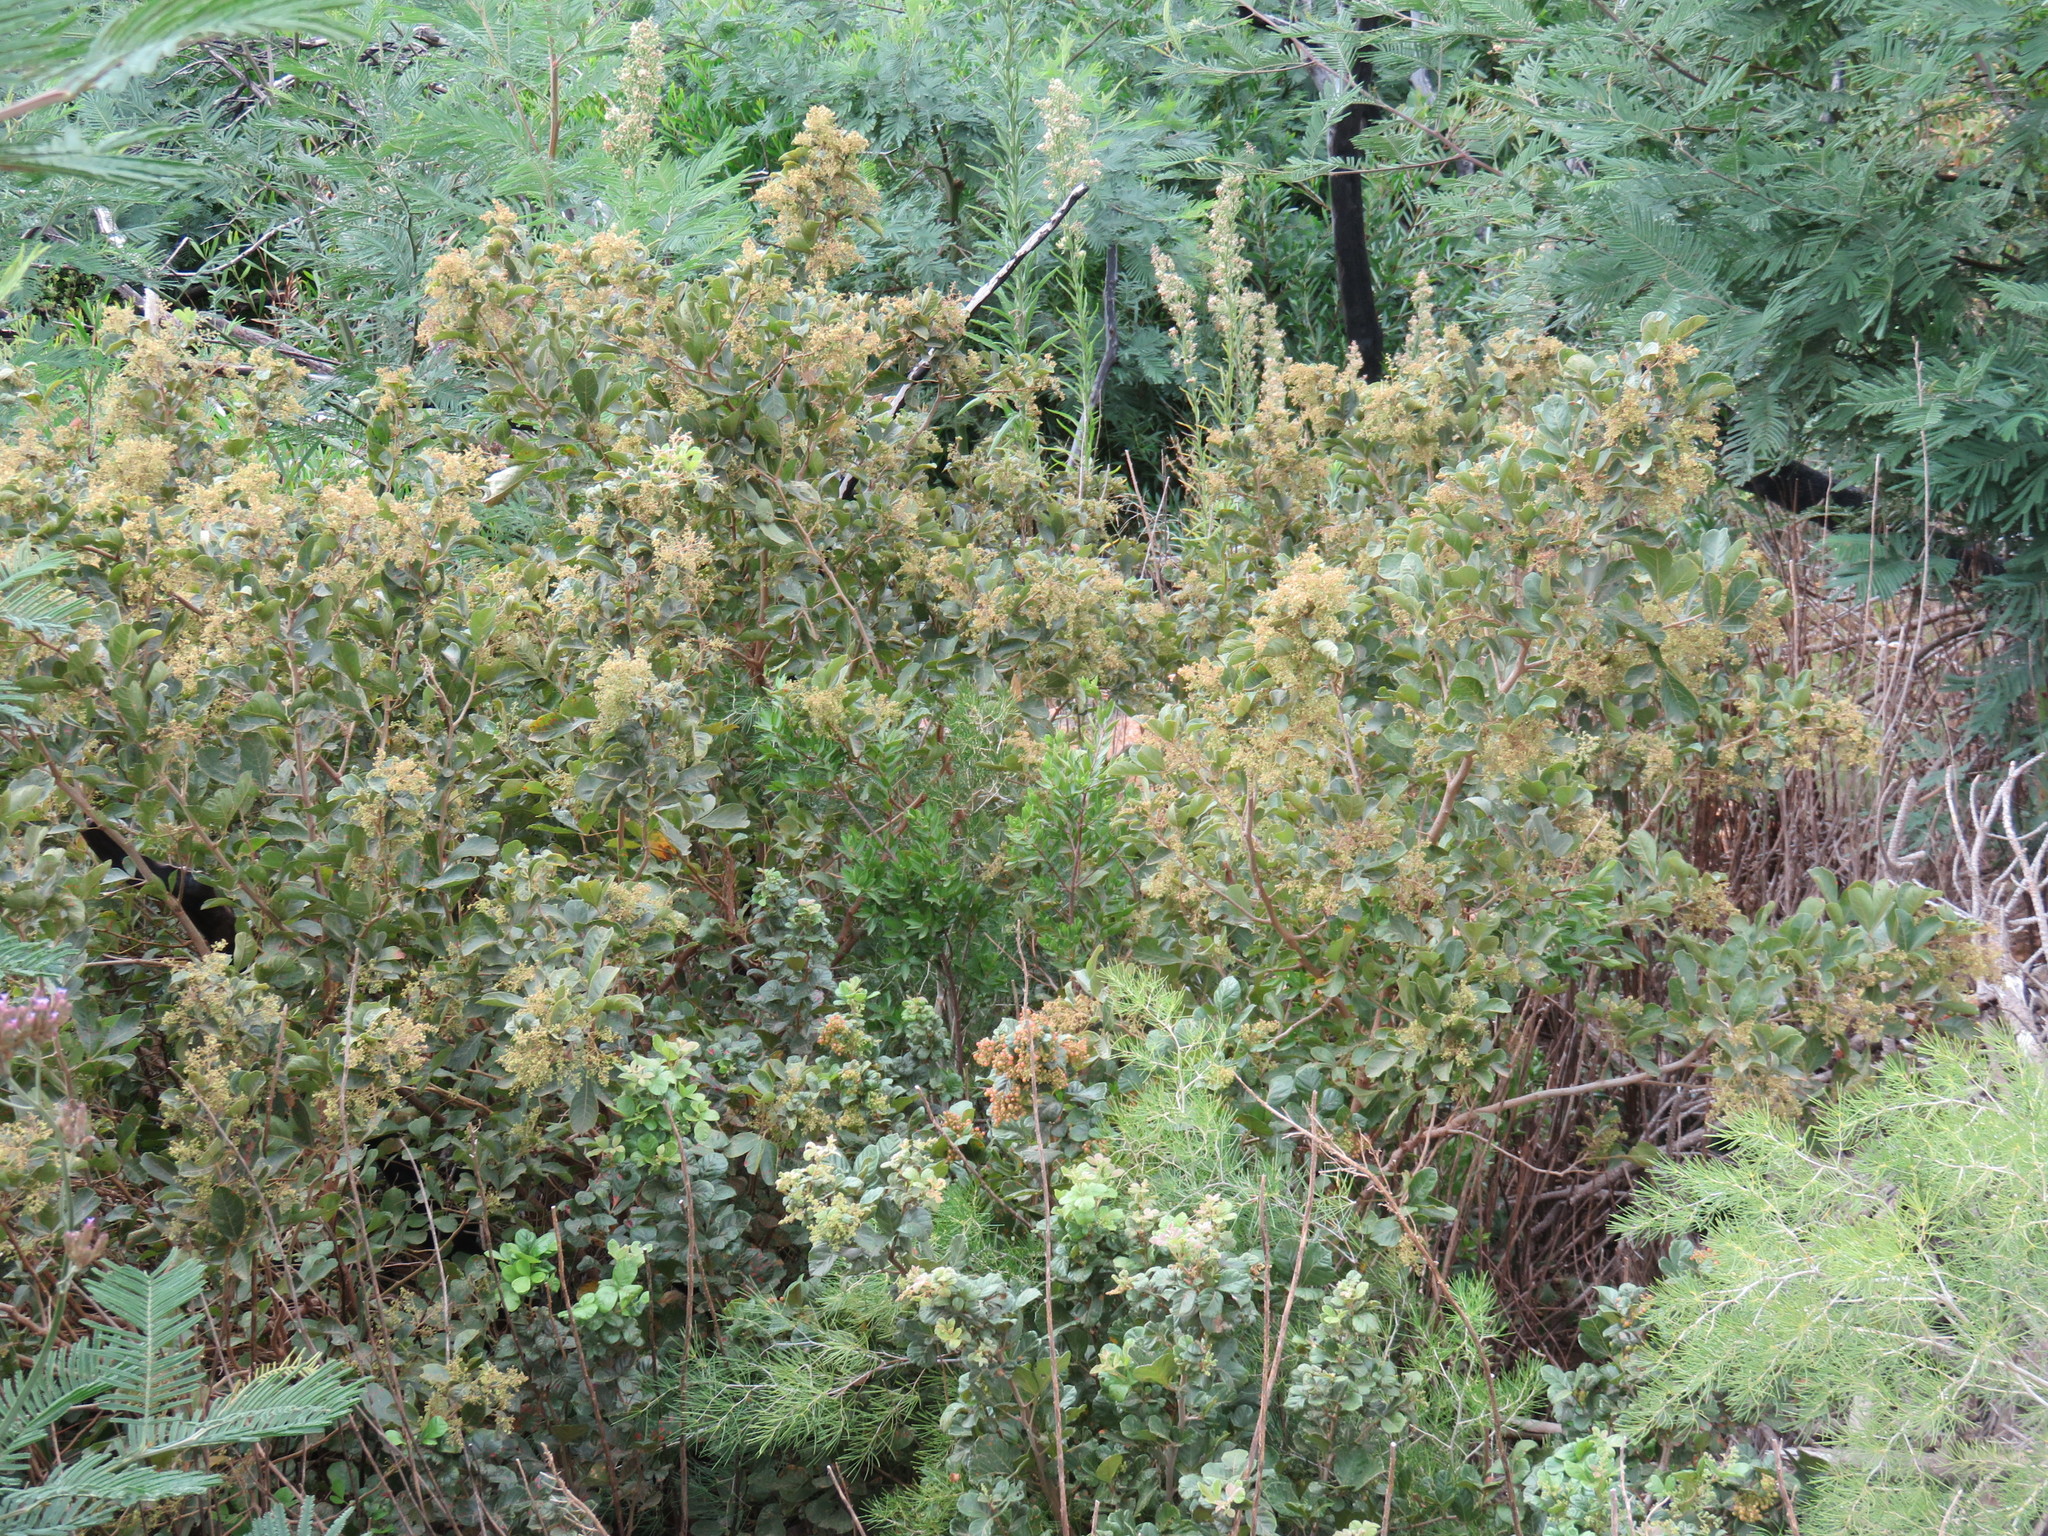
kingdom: Plantae
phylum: Tracheophyta
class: Magnoliopsida
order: Sapindales
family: Anacardiaceae
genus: Searsia
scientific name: Searsia rehmanniana
